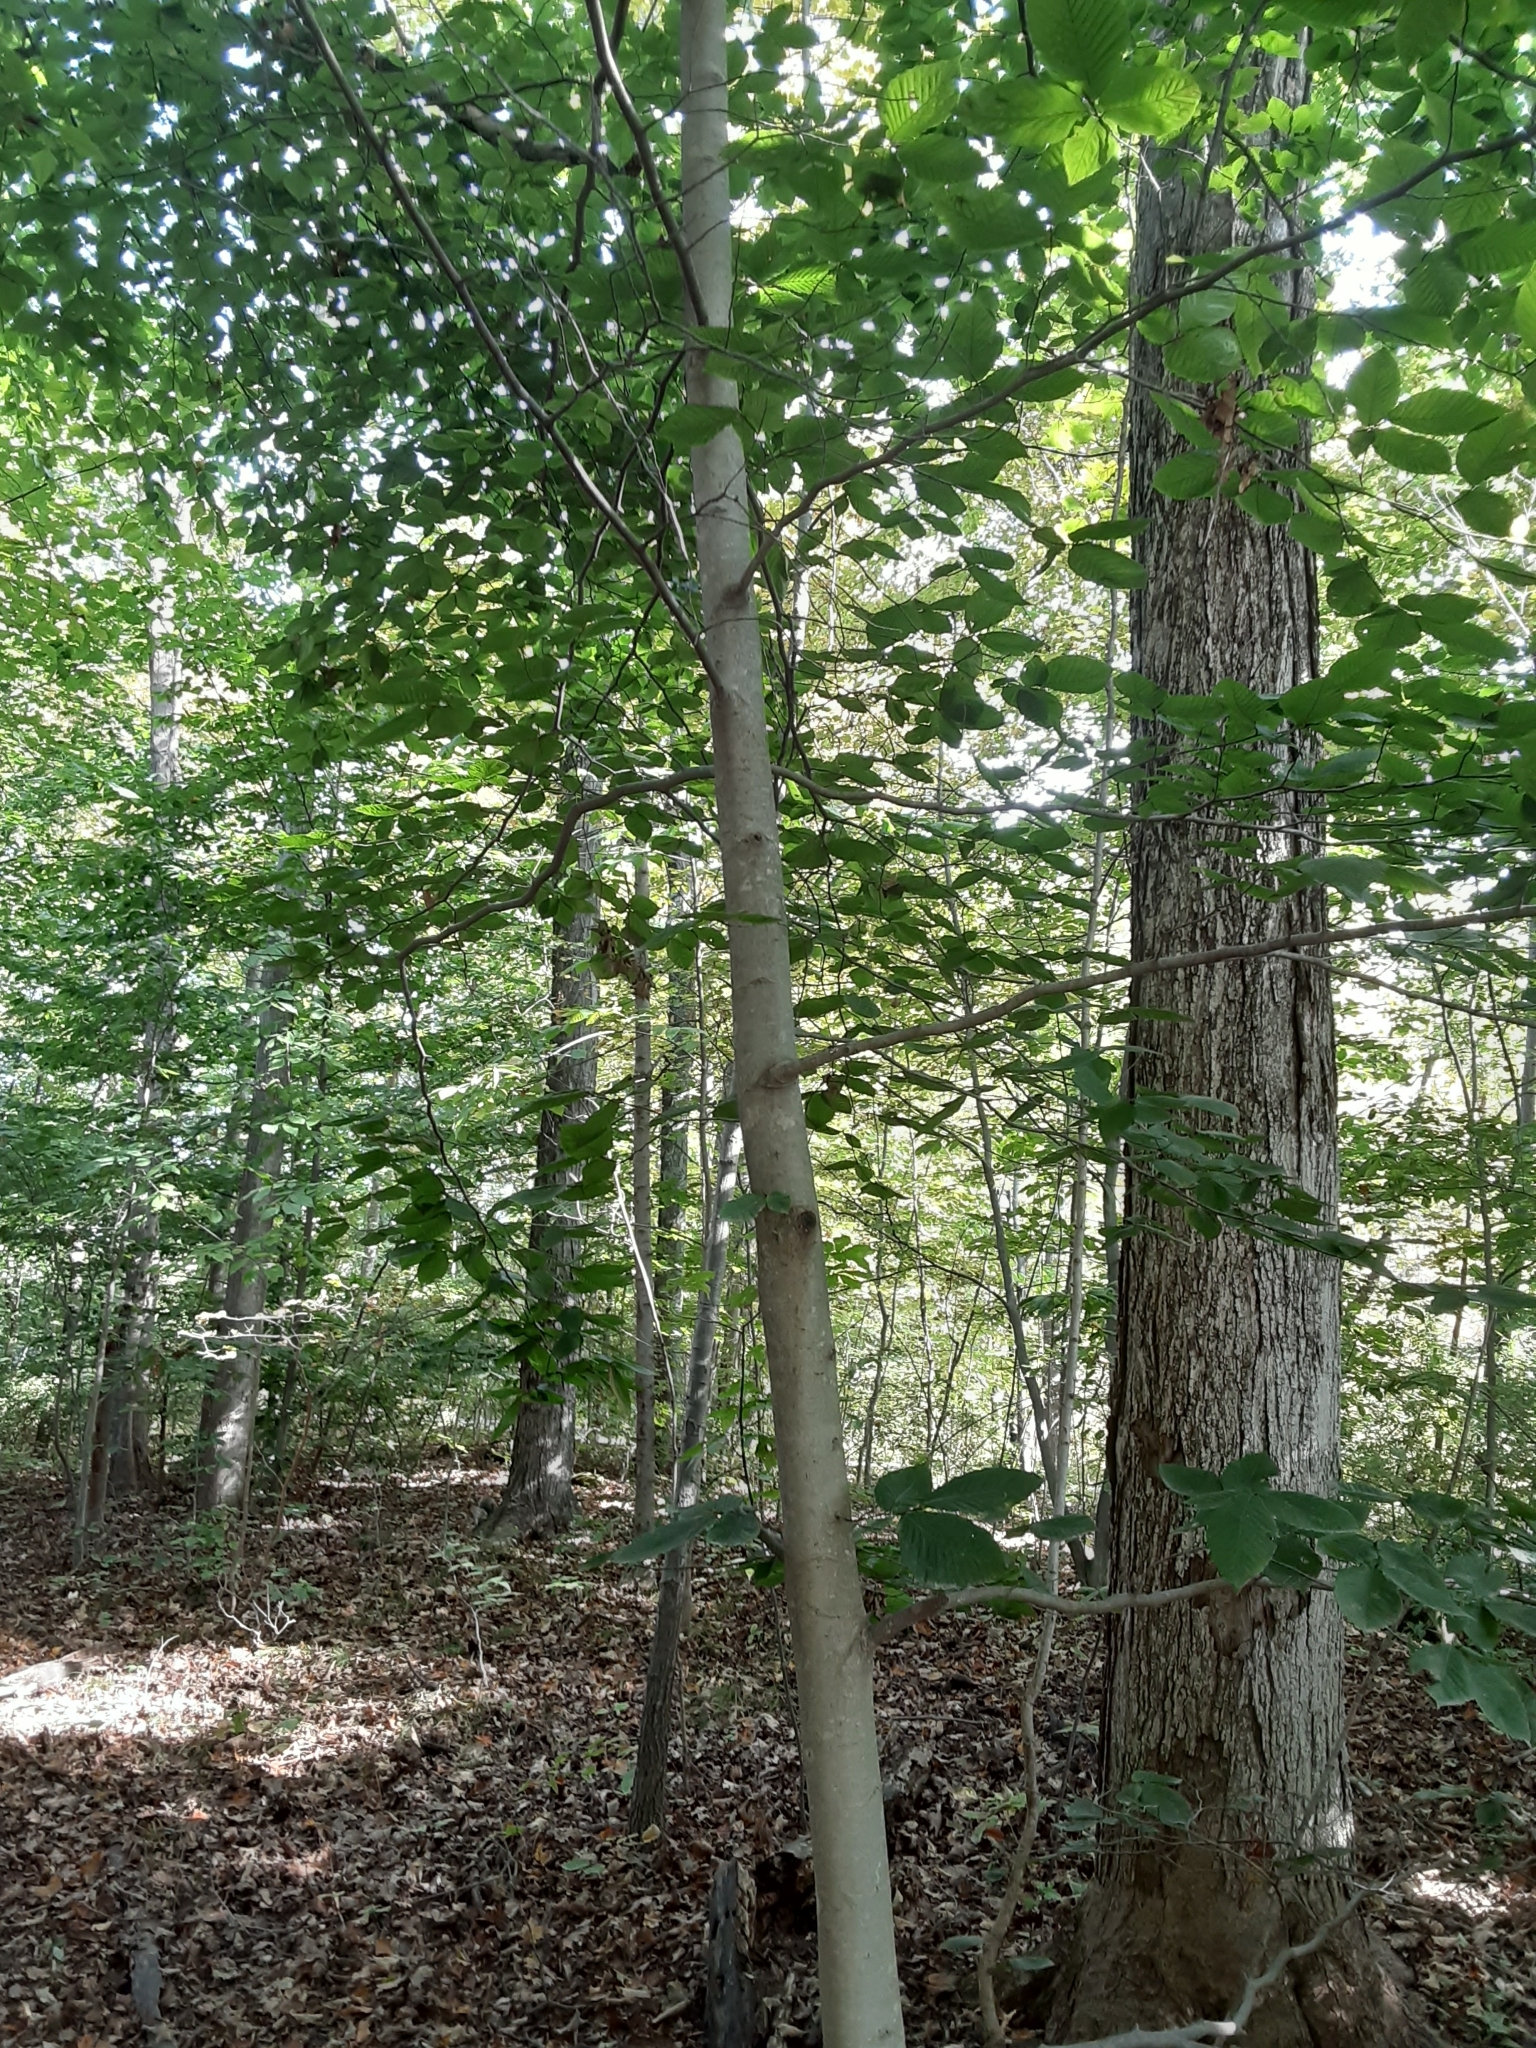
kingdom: Plantae
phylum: Tracheophyta
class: Magnoliopsida
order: Fagales
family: Fagaceae
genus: Fagus
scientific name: Fagus grandifolia
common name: American beech
